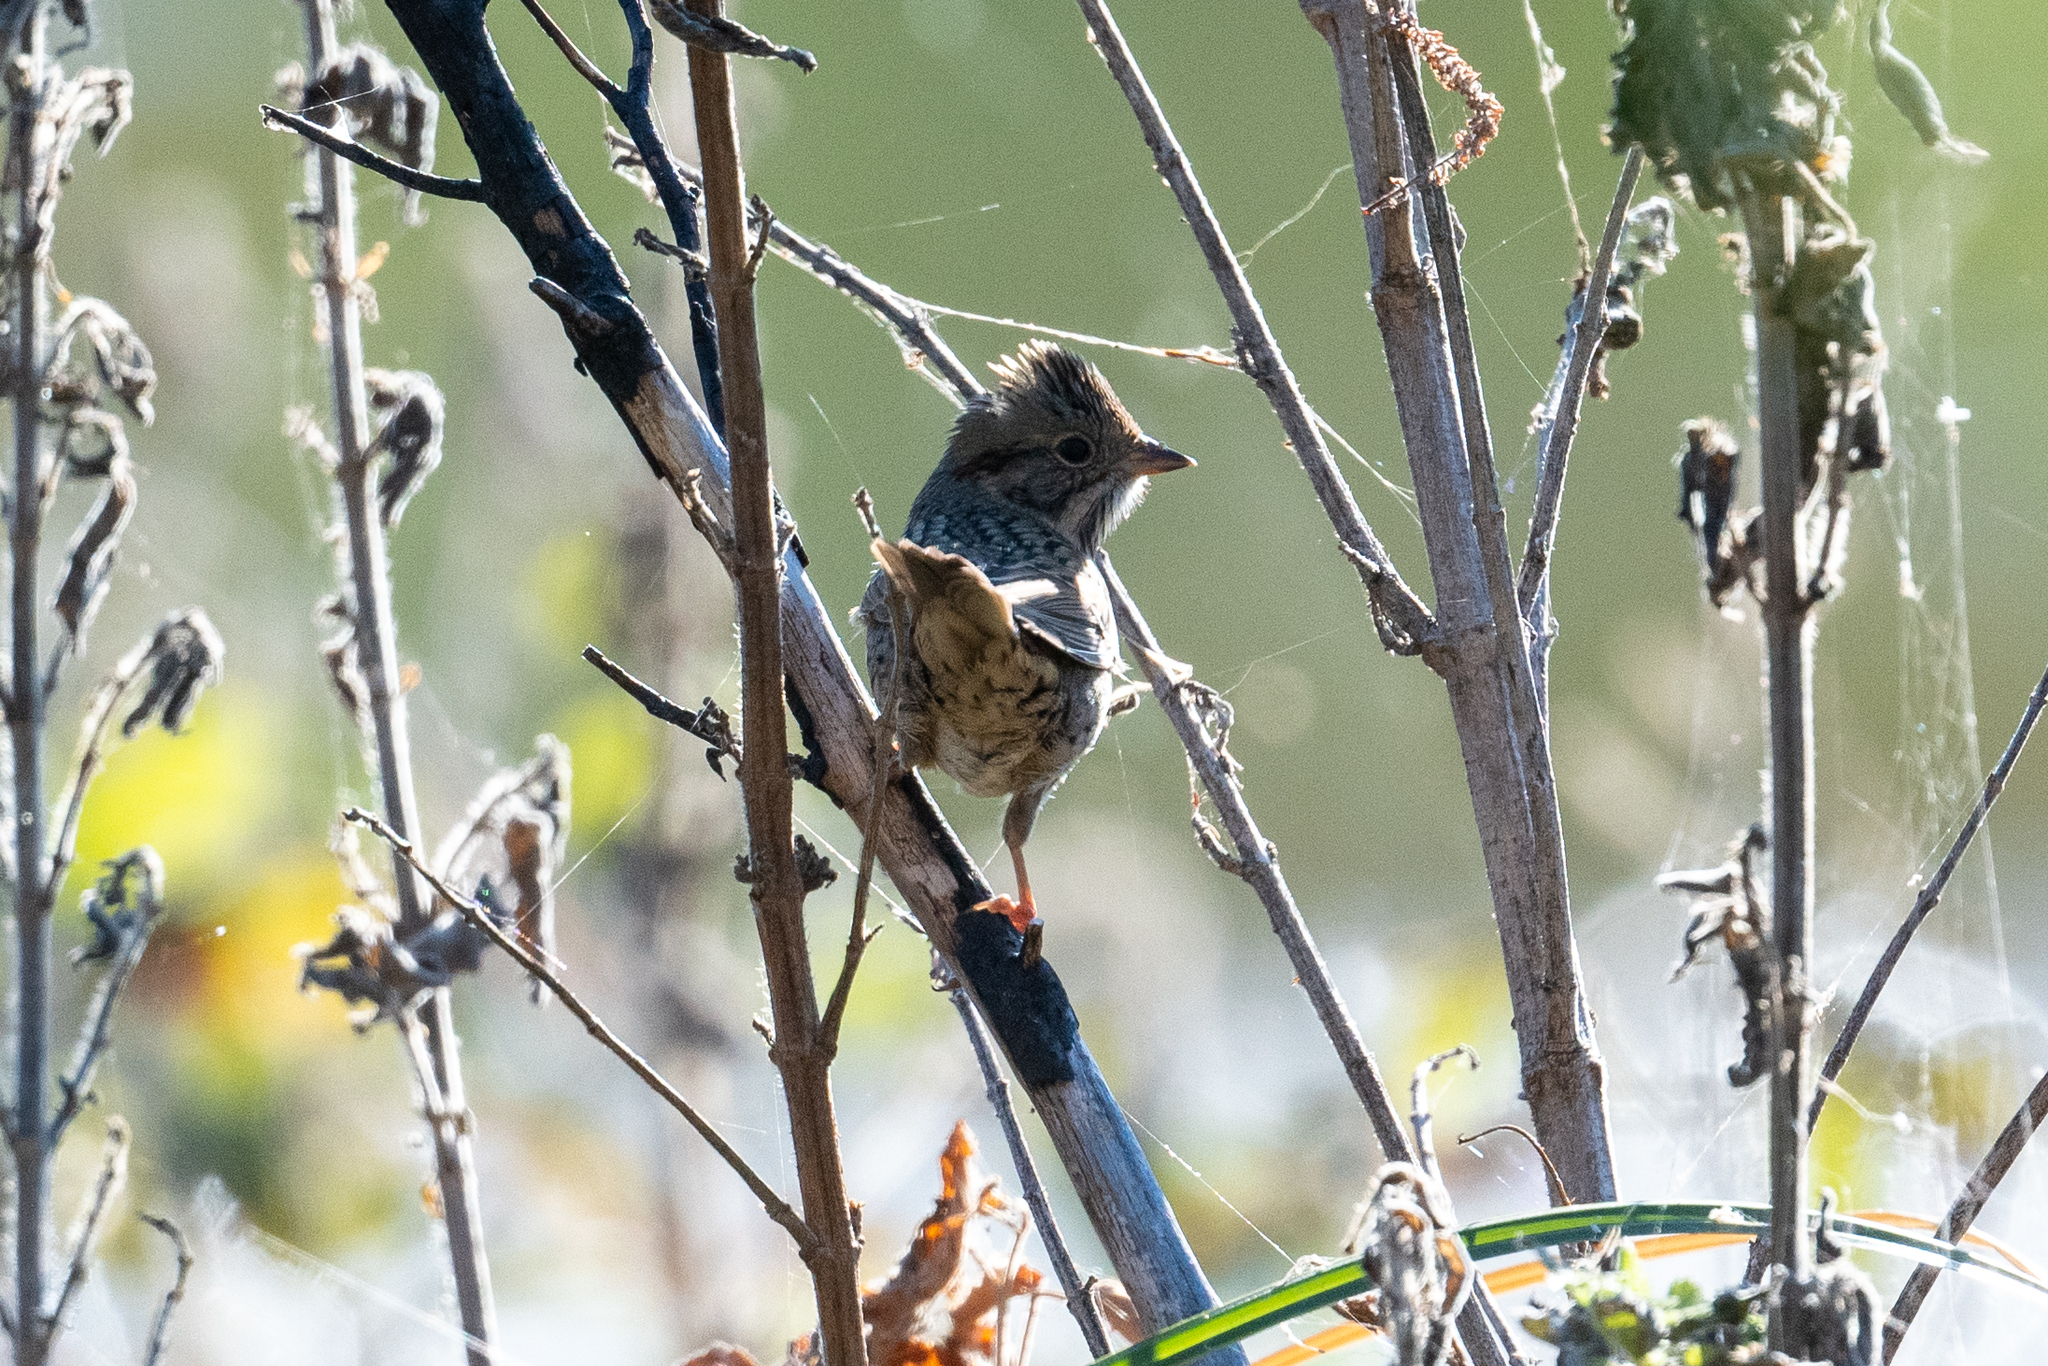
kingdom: Animalia
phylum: Chordata
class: Aves
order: Passeriformes
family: Passerellidae
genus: Melospiza
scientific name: Melospiza lincolnii
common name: Lincoln's sparrow
